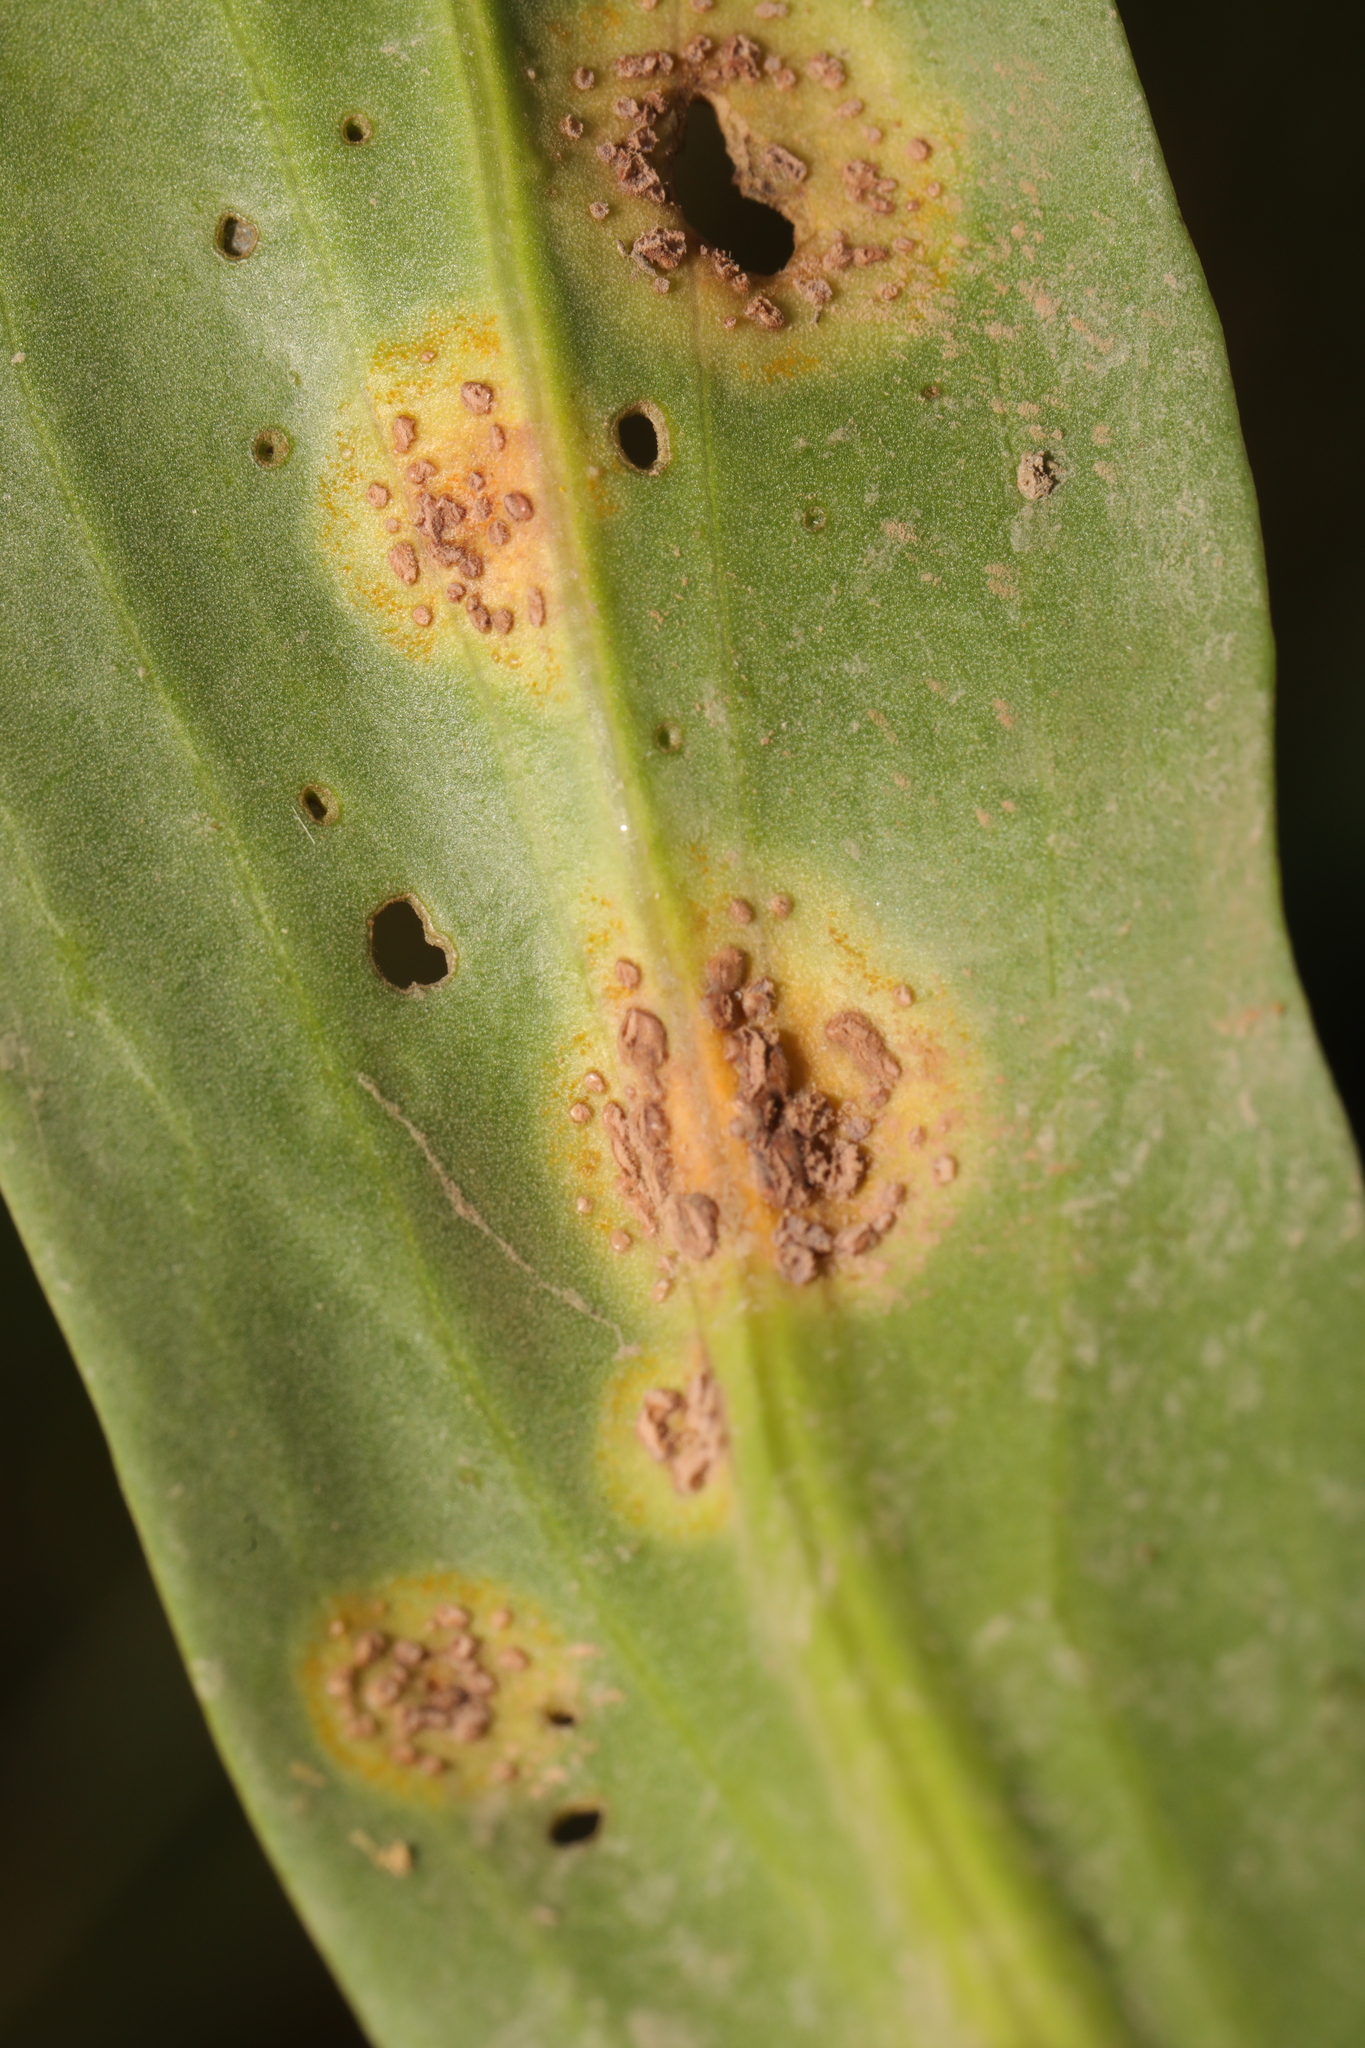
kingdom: Fungi
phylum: Basidiomycota
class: Pucciniomycetes
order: Pucciniales
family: Pucciniaceae
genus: Puccinia
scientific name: Puccinia dioicae
